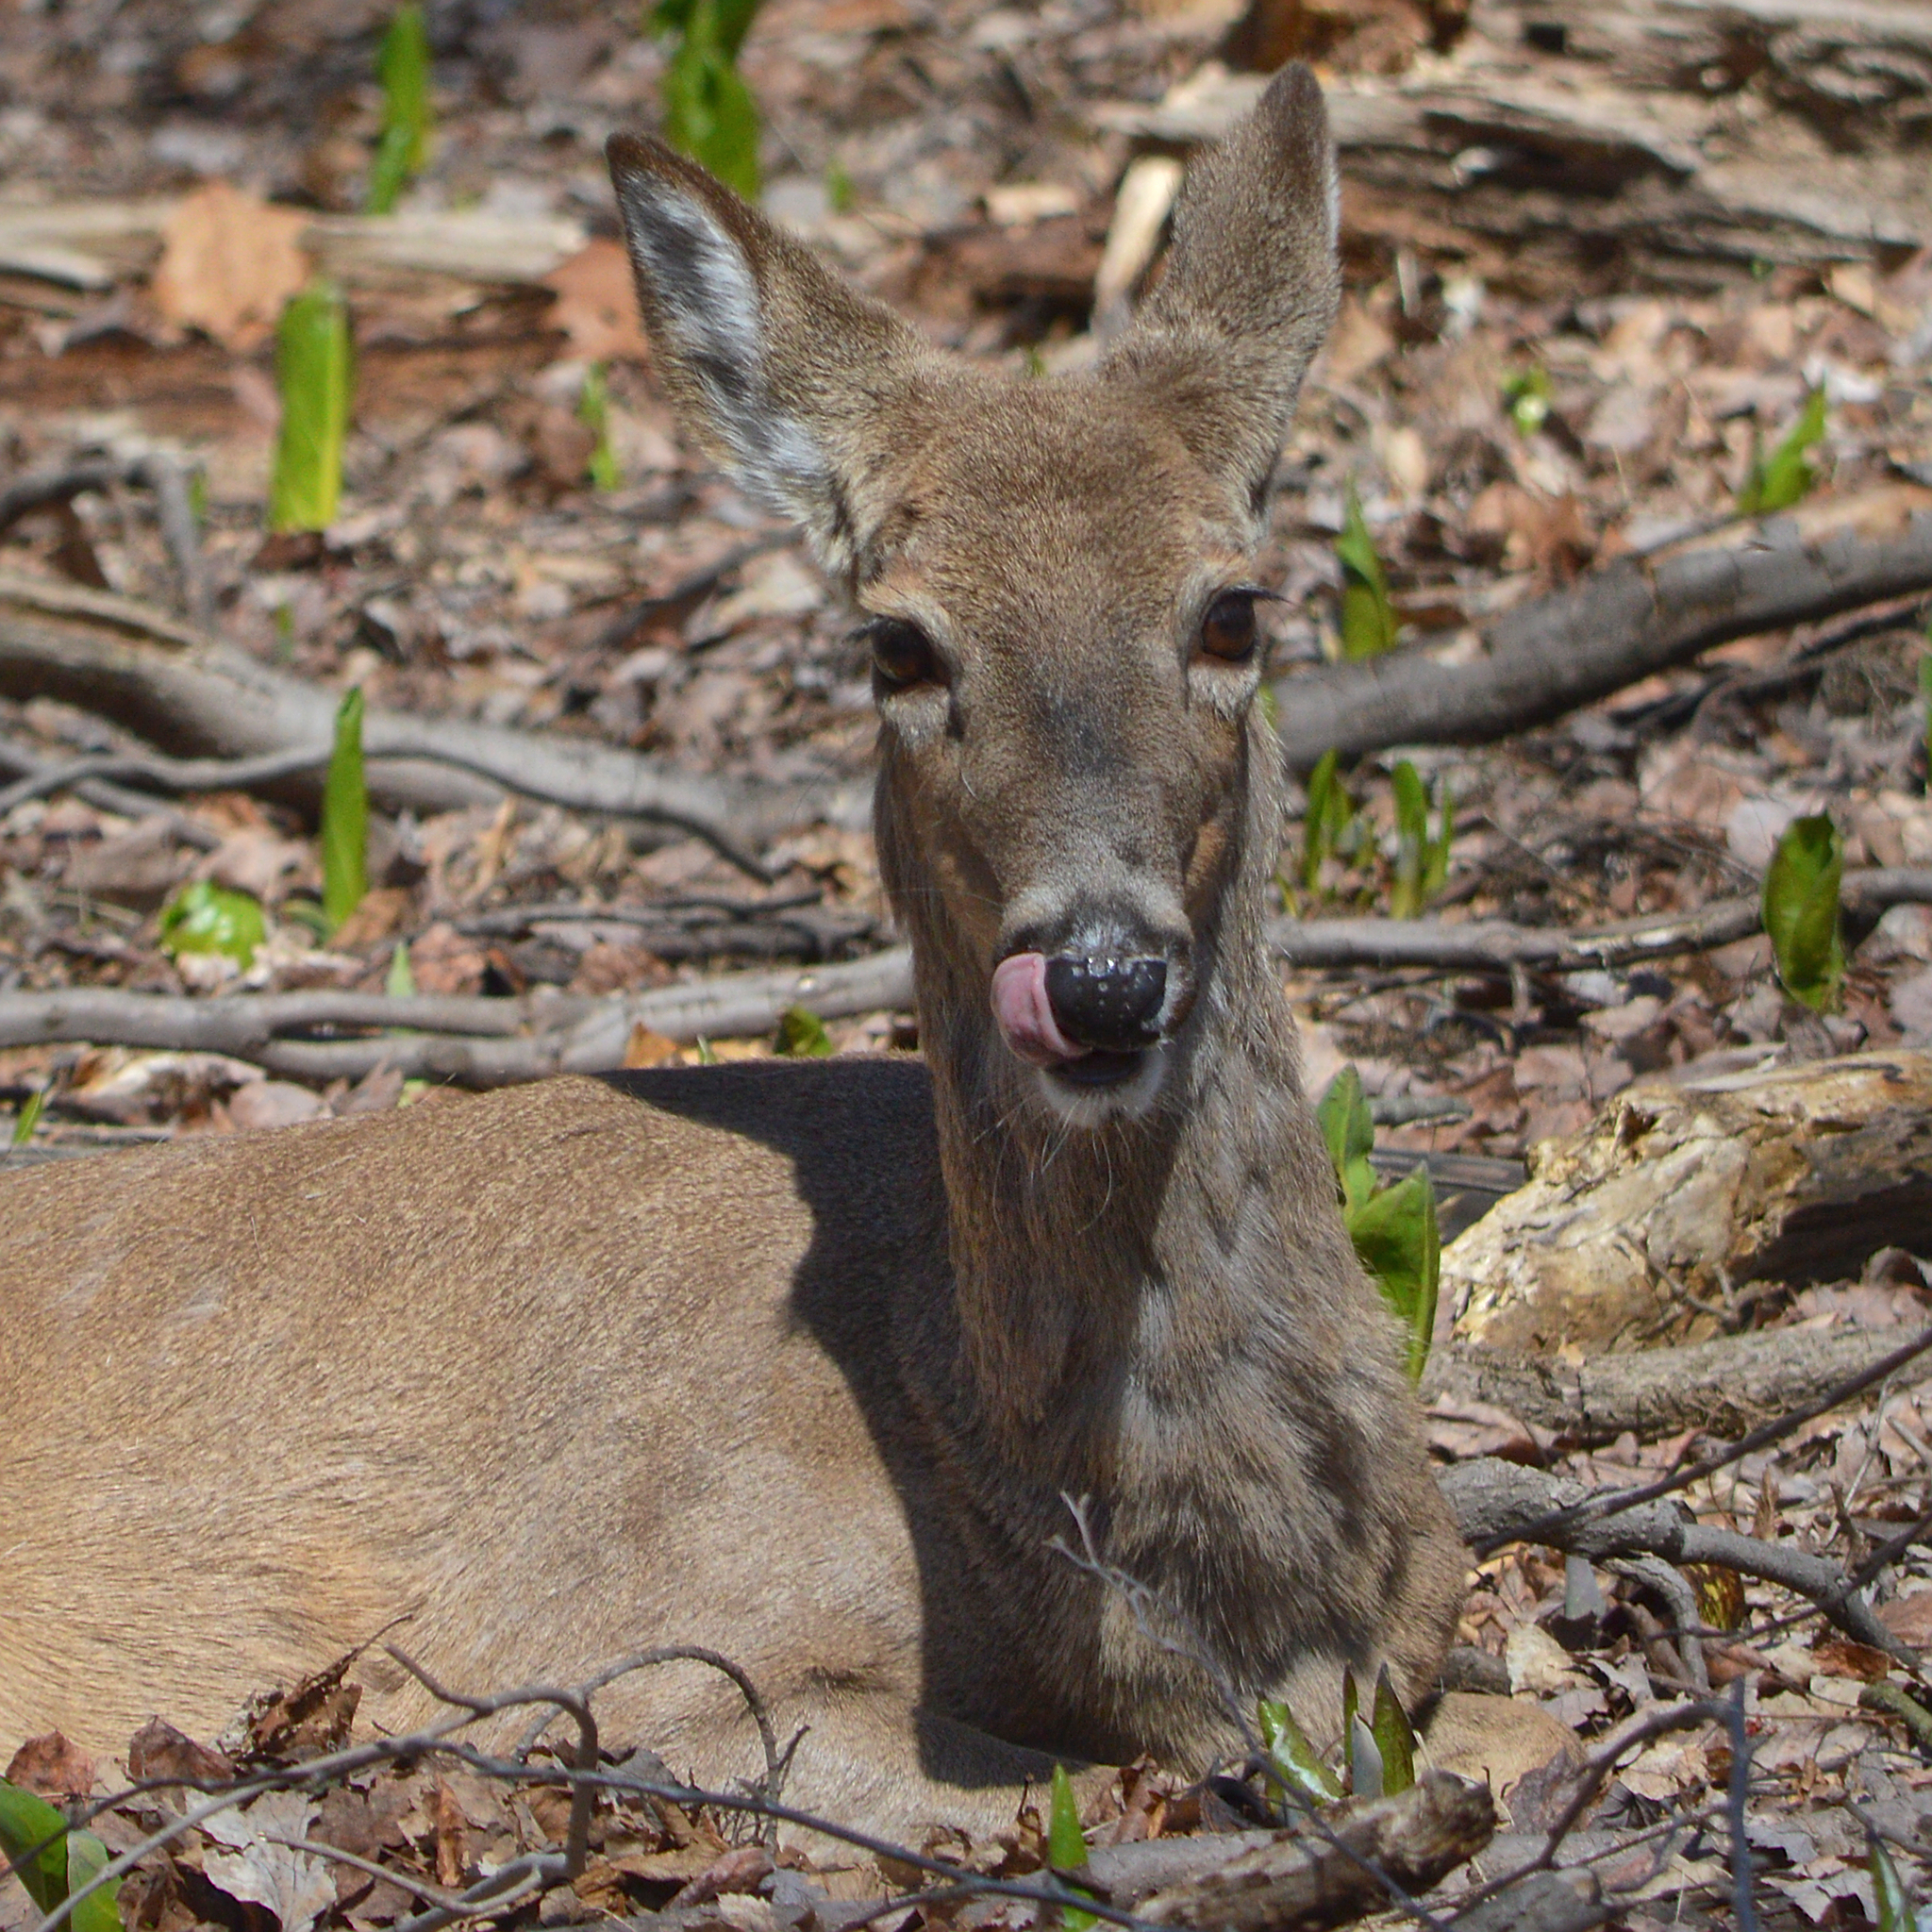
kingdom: Animalia
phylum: Chordata
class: Mammalia
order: Artiodactyla
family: Cervidae
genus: Odocoileus
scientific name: Odocoileus virginianus
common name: White-tailed deer
